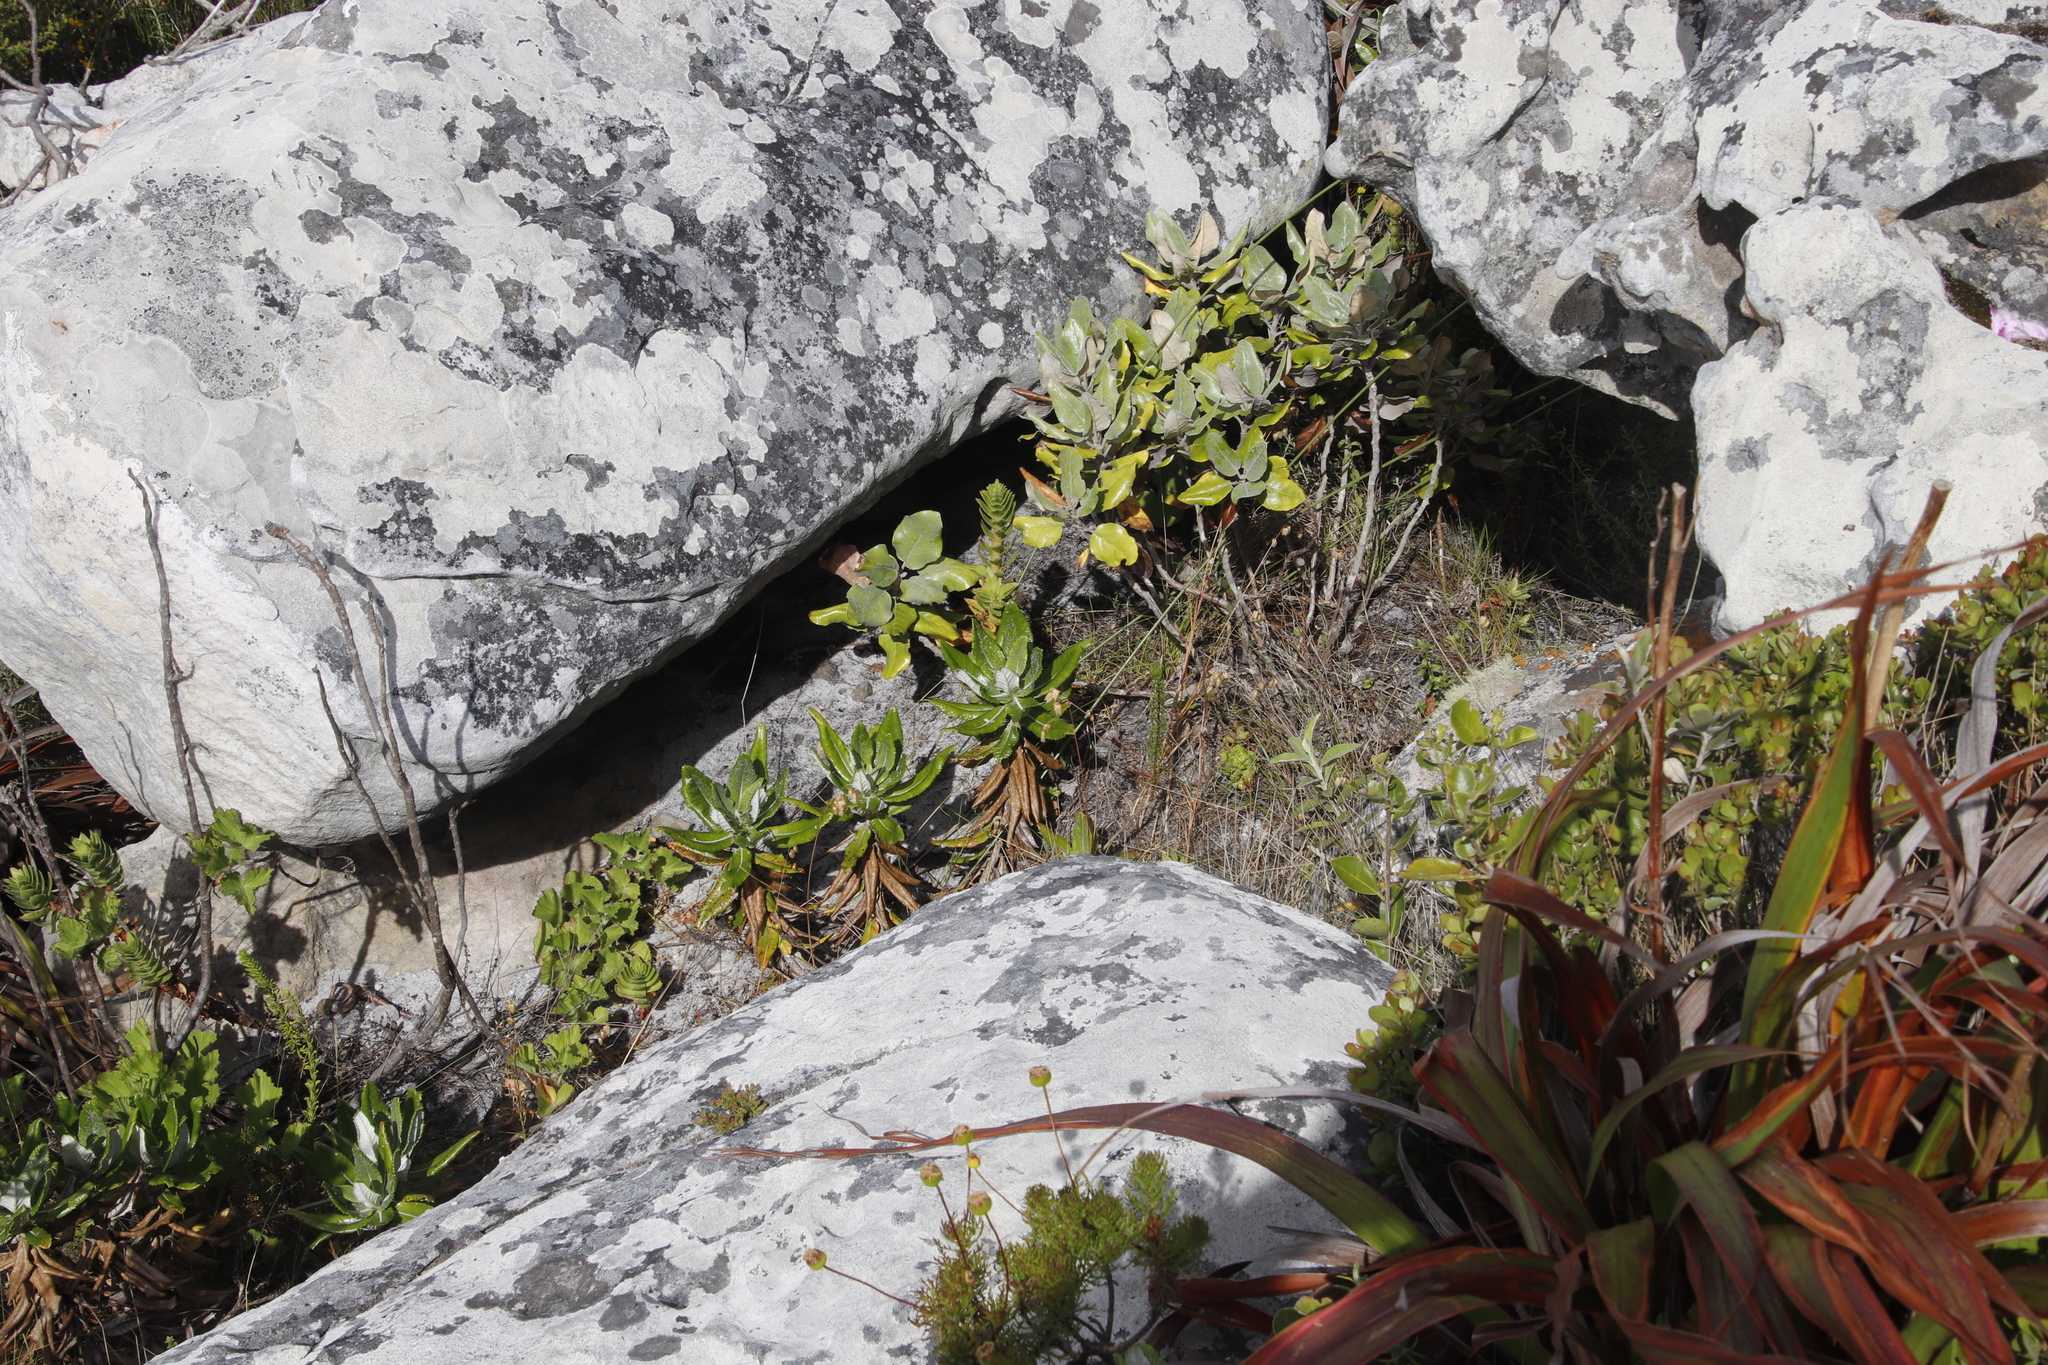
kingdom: Plantae
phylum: Tracheophyta
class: Magnoliopsida
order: Apiales
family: Apiaceae
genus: Hermas
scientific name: Hermas villosa
